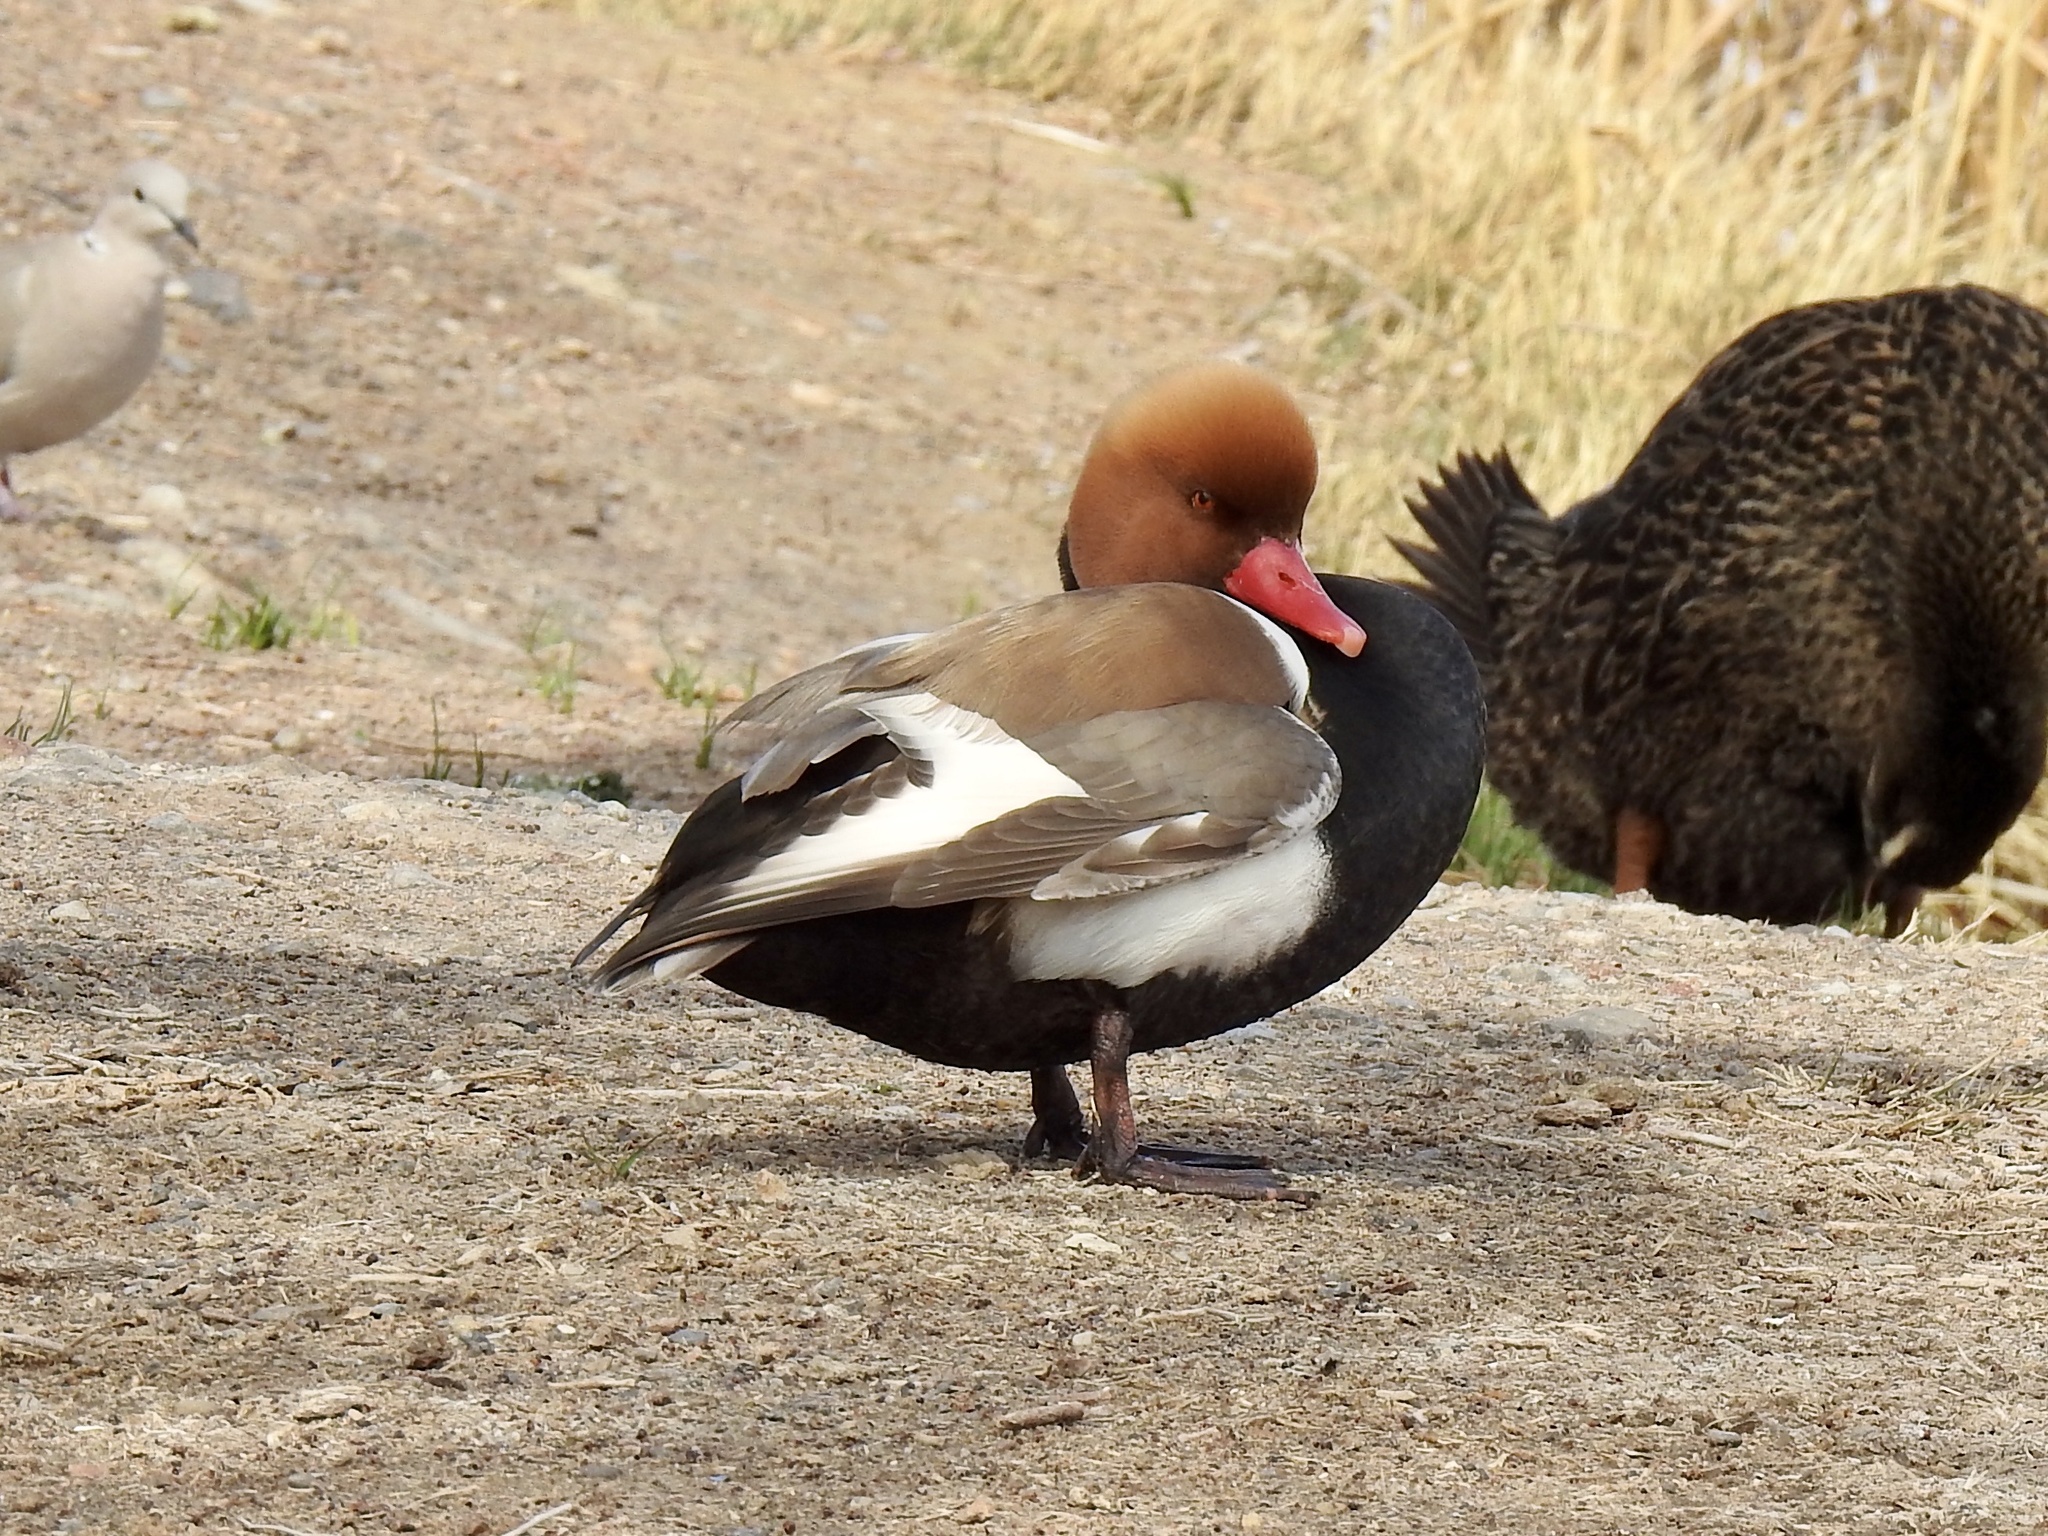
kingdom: Animalia
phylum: Chordata
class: Aves
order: Anseriformes
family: Anatidae
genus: Netta
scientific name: Netta rufina
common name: Red-crested pochard
